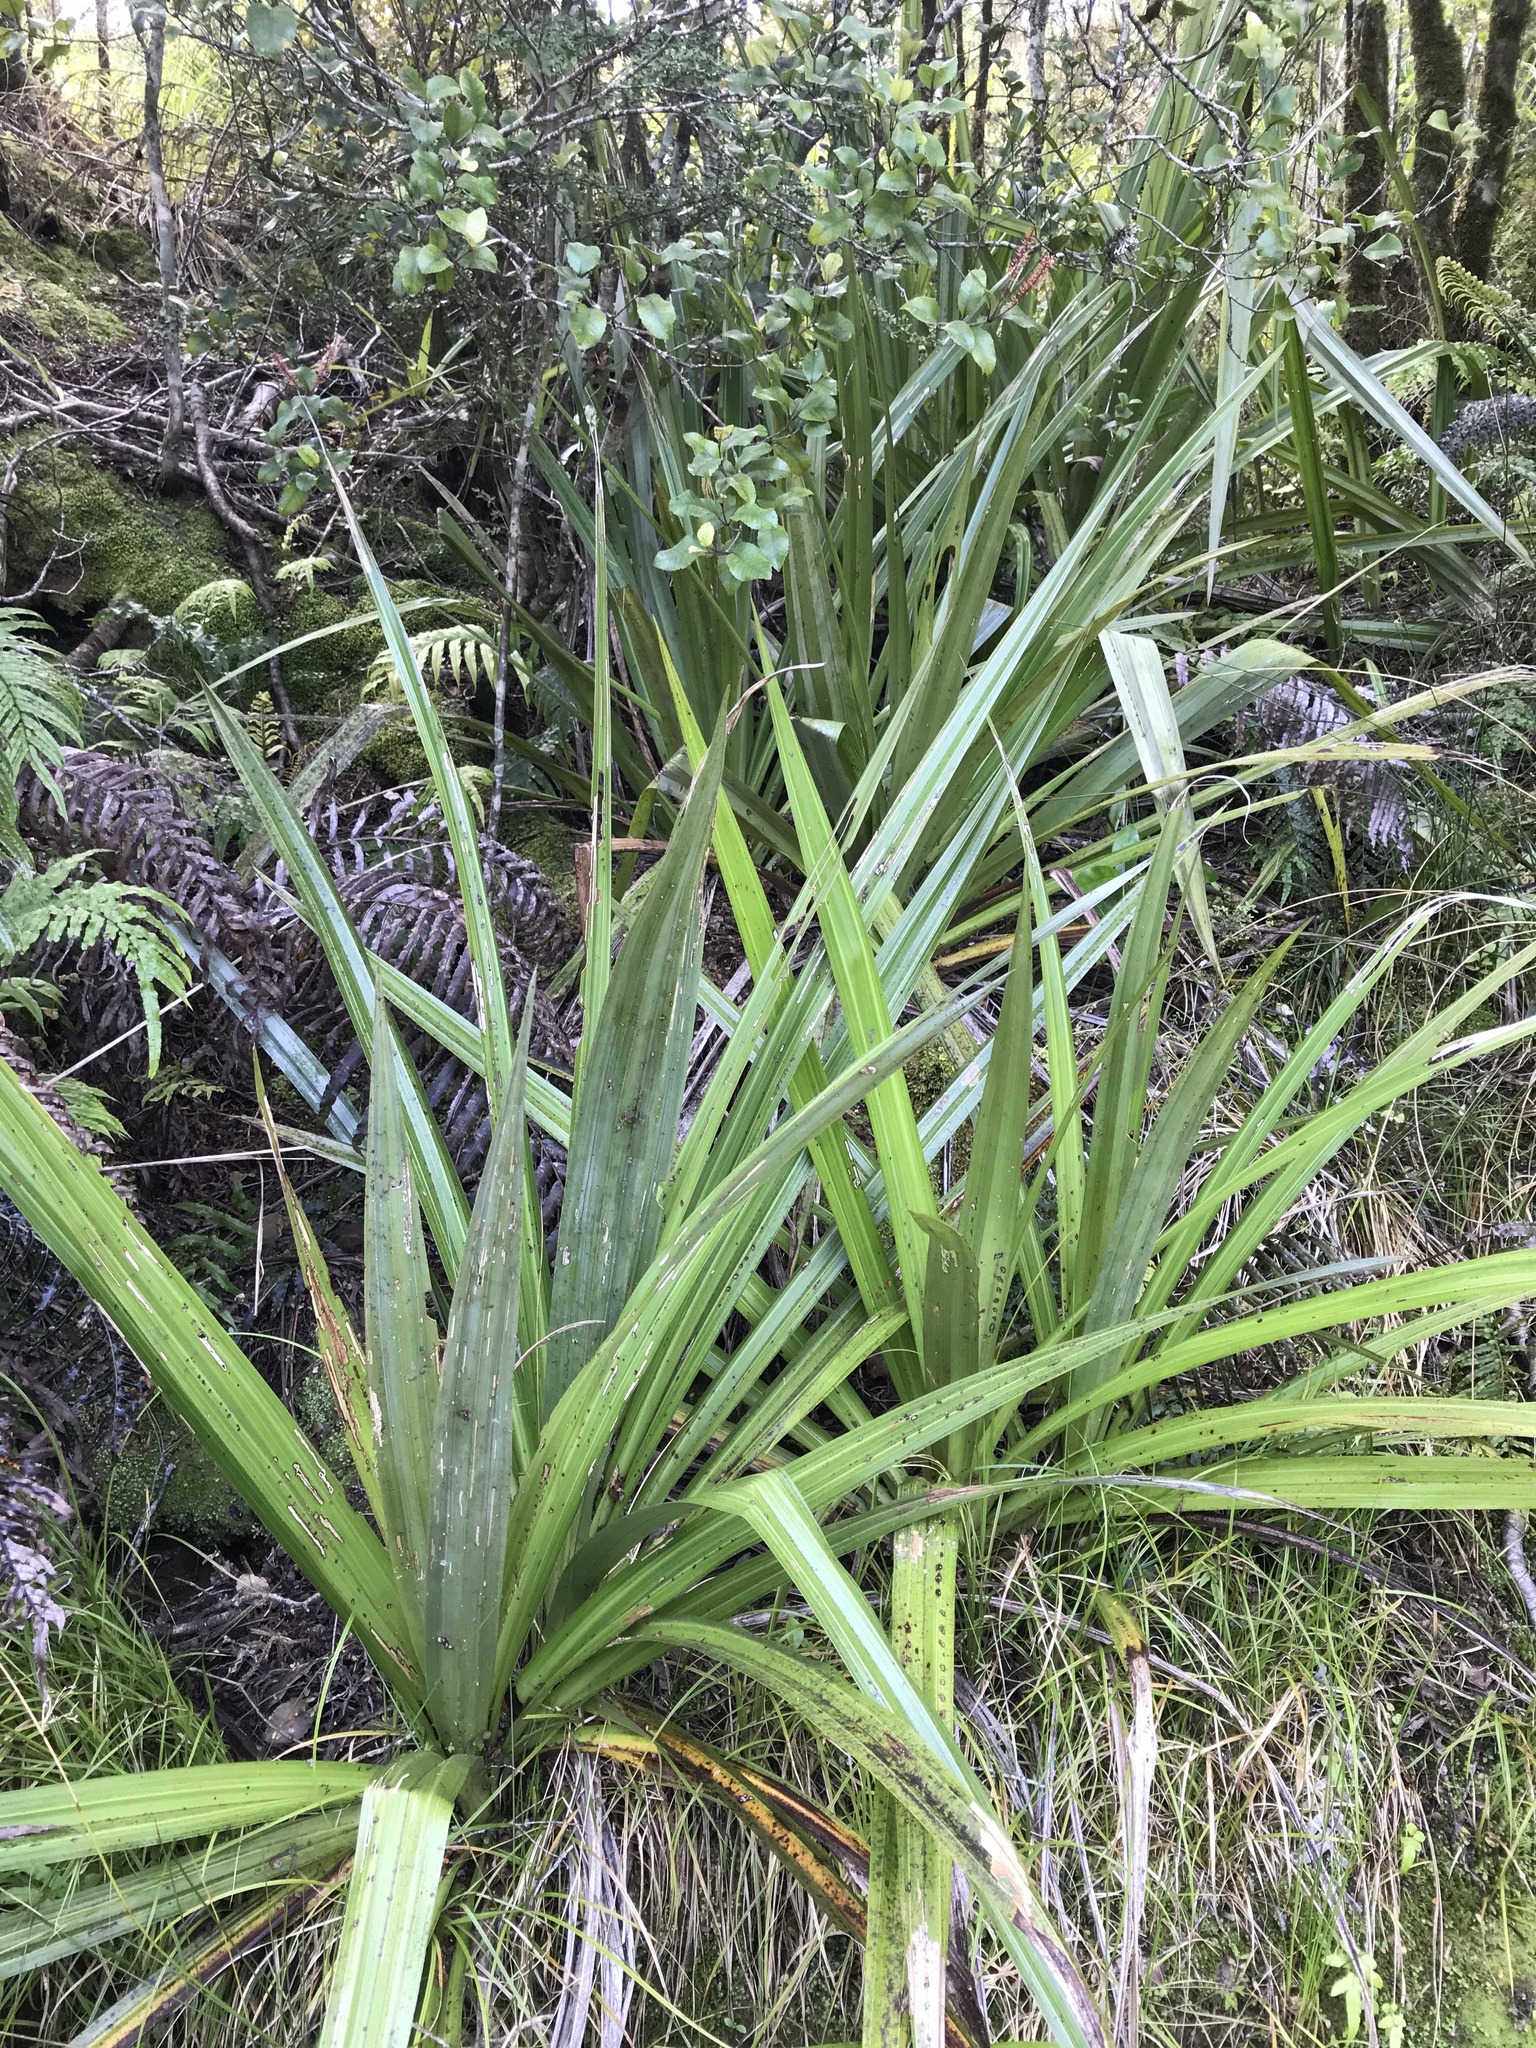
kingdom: Plantae
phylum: Tracheophyta
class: Liliopsida
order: Asparagales
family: Asteliaceae
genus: Astelia
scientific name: Astelia grandis
